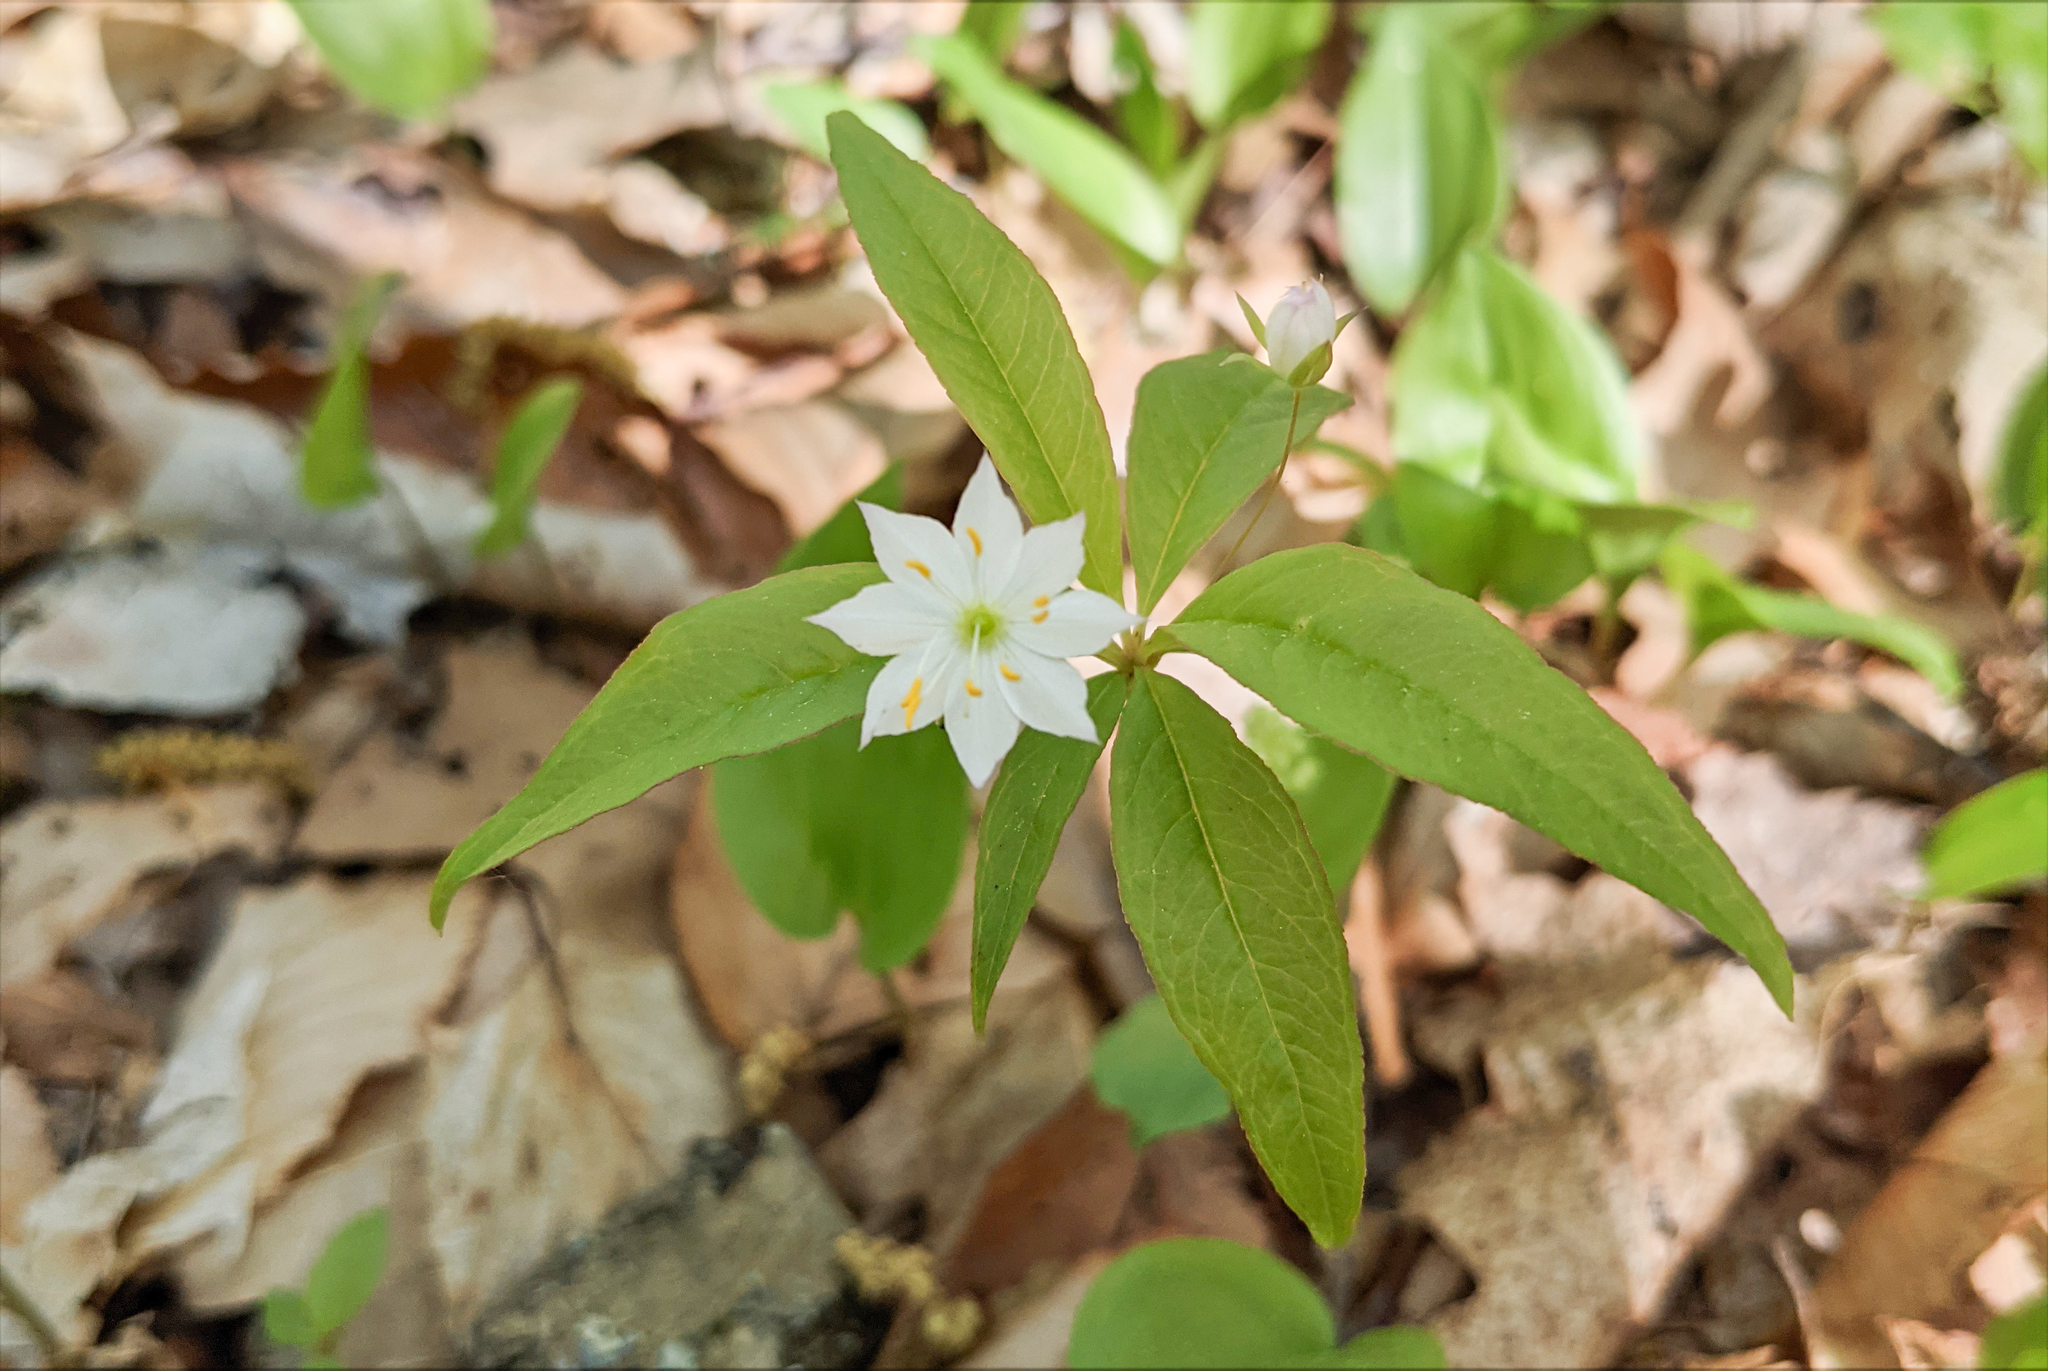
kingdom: Plantae
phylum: Tracheophyta
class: Magnoliopsida
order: Ericales
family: Primulaceae
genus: Lysimachia
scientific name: Lysimachia borealis
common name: American starflower
